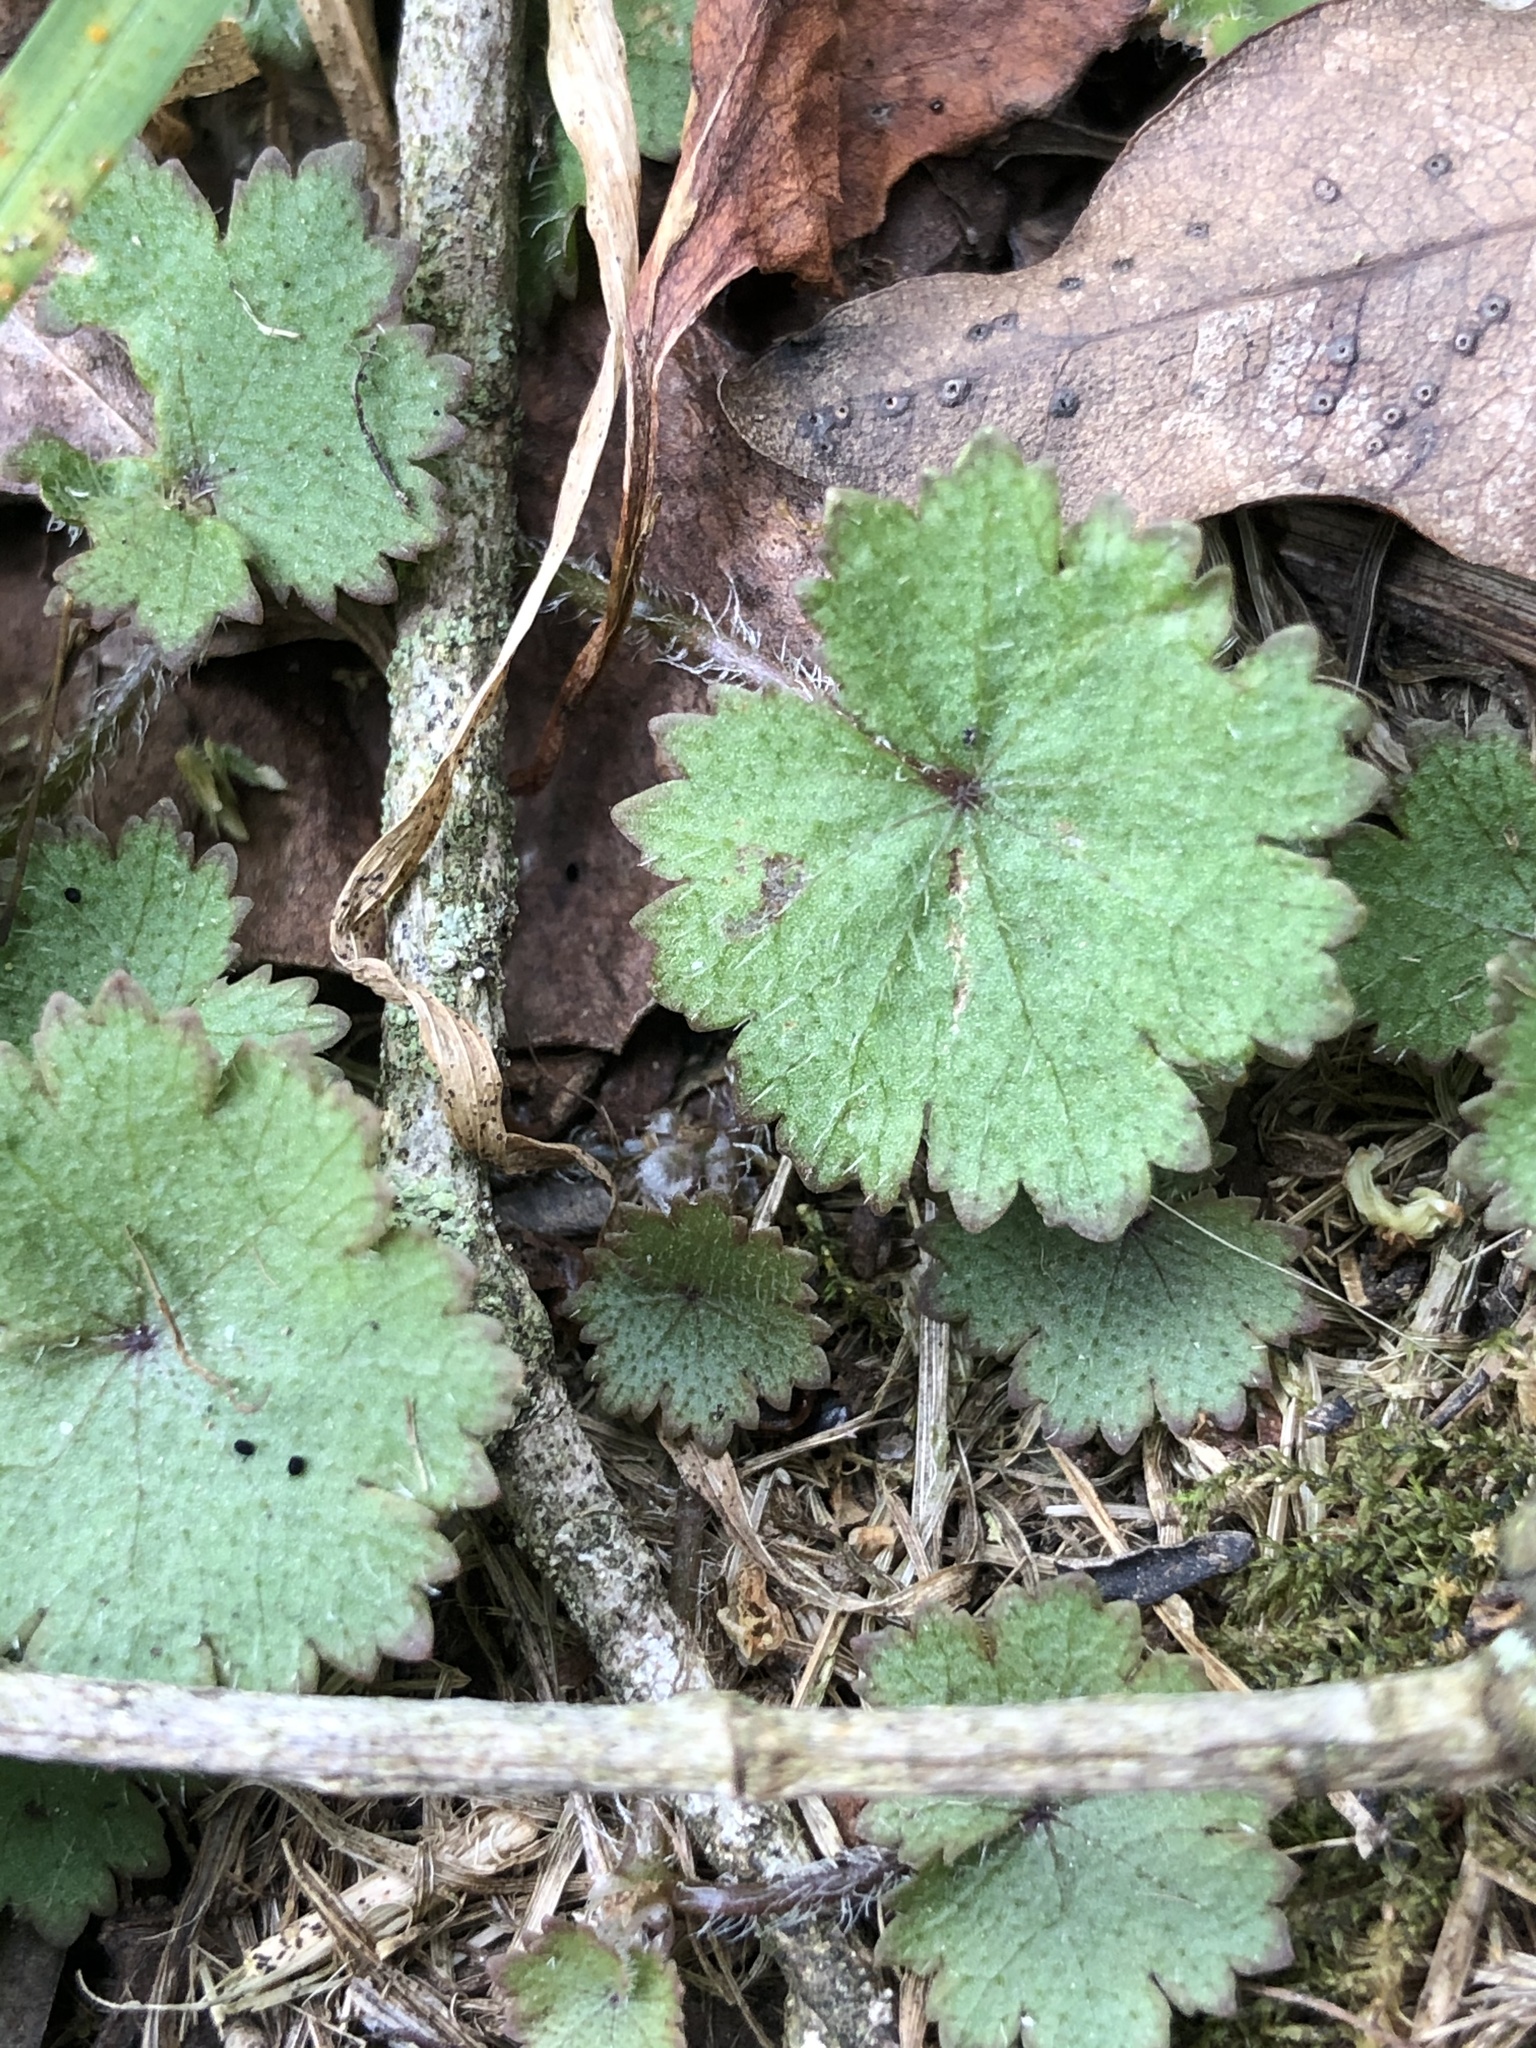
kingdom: Plantae
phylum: Tracheophyta
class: Magnoliopsida
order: Apiales
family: Araliaceae
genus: Hydrocotyle
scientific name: Hydrocotyle moschata
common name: Hairy pennywort
